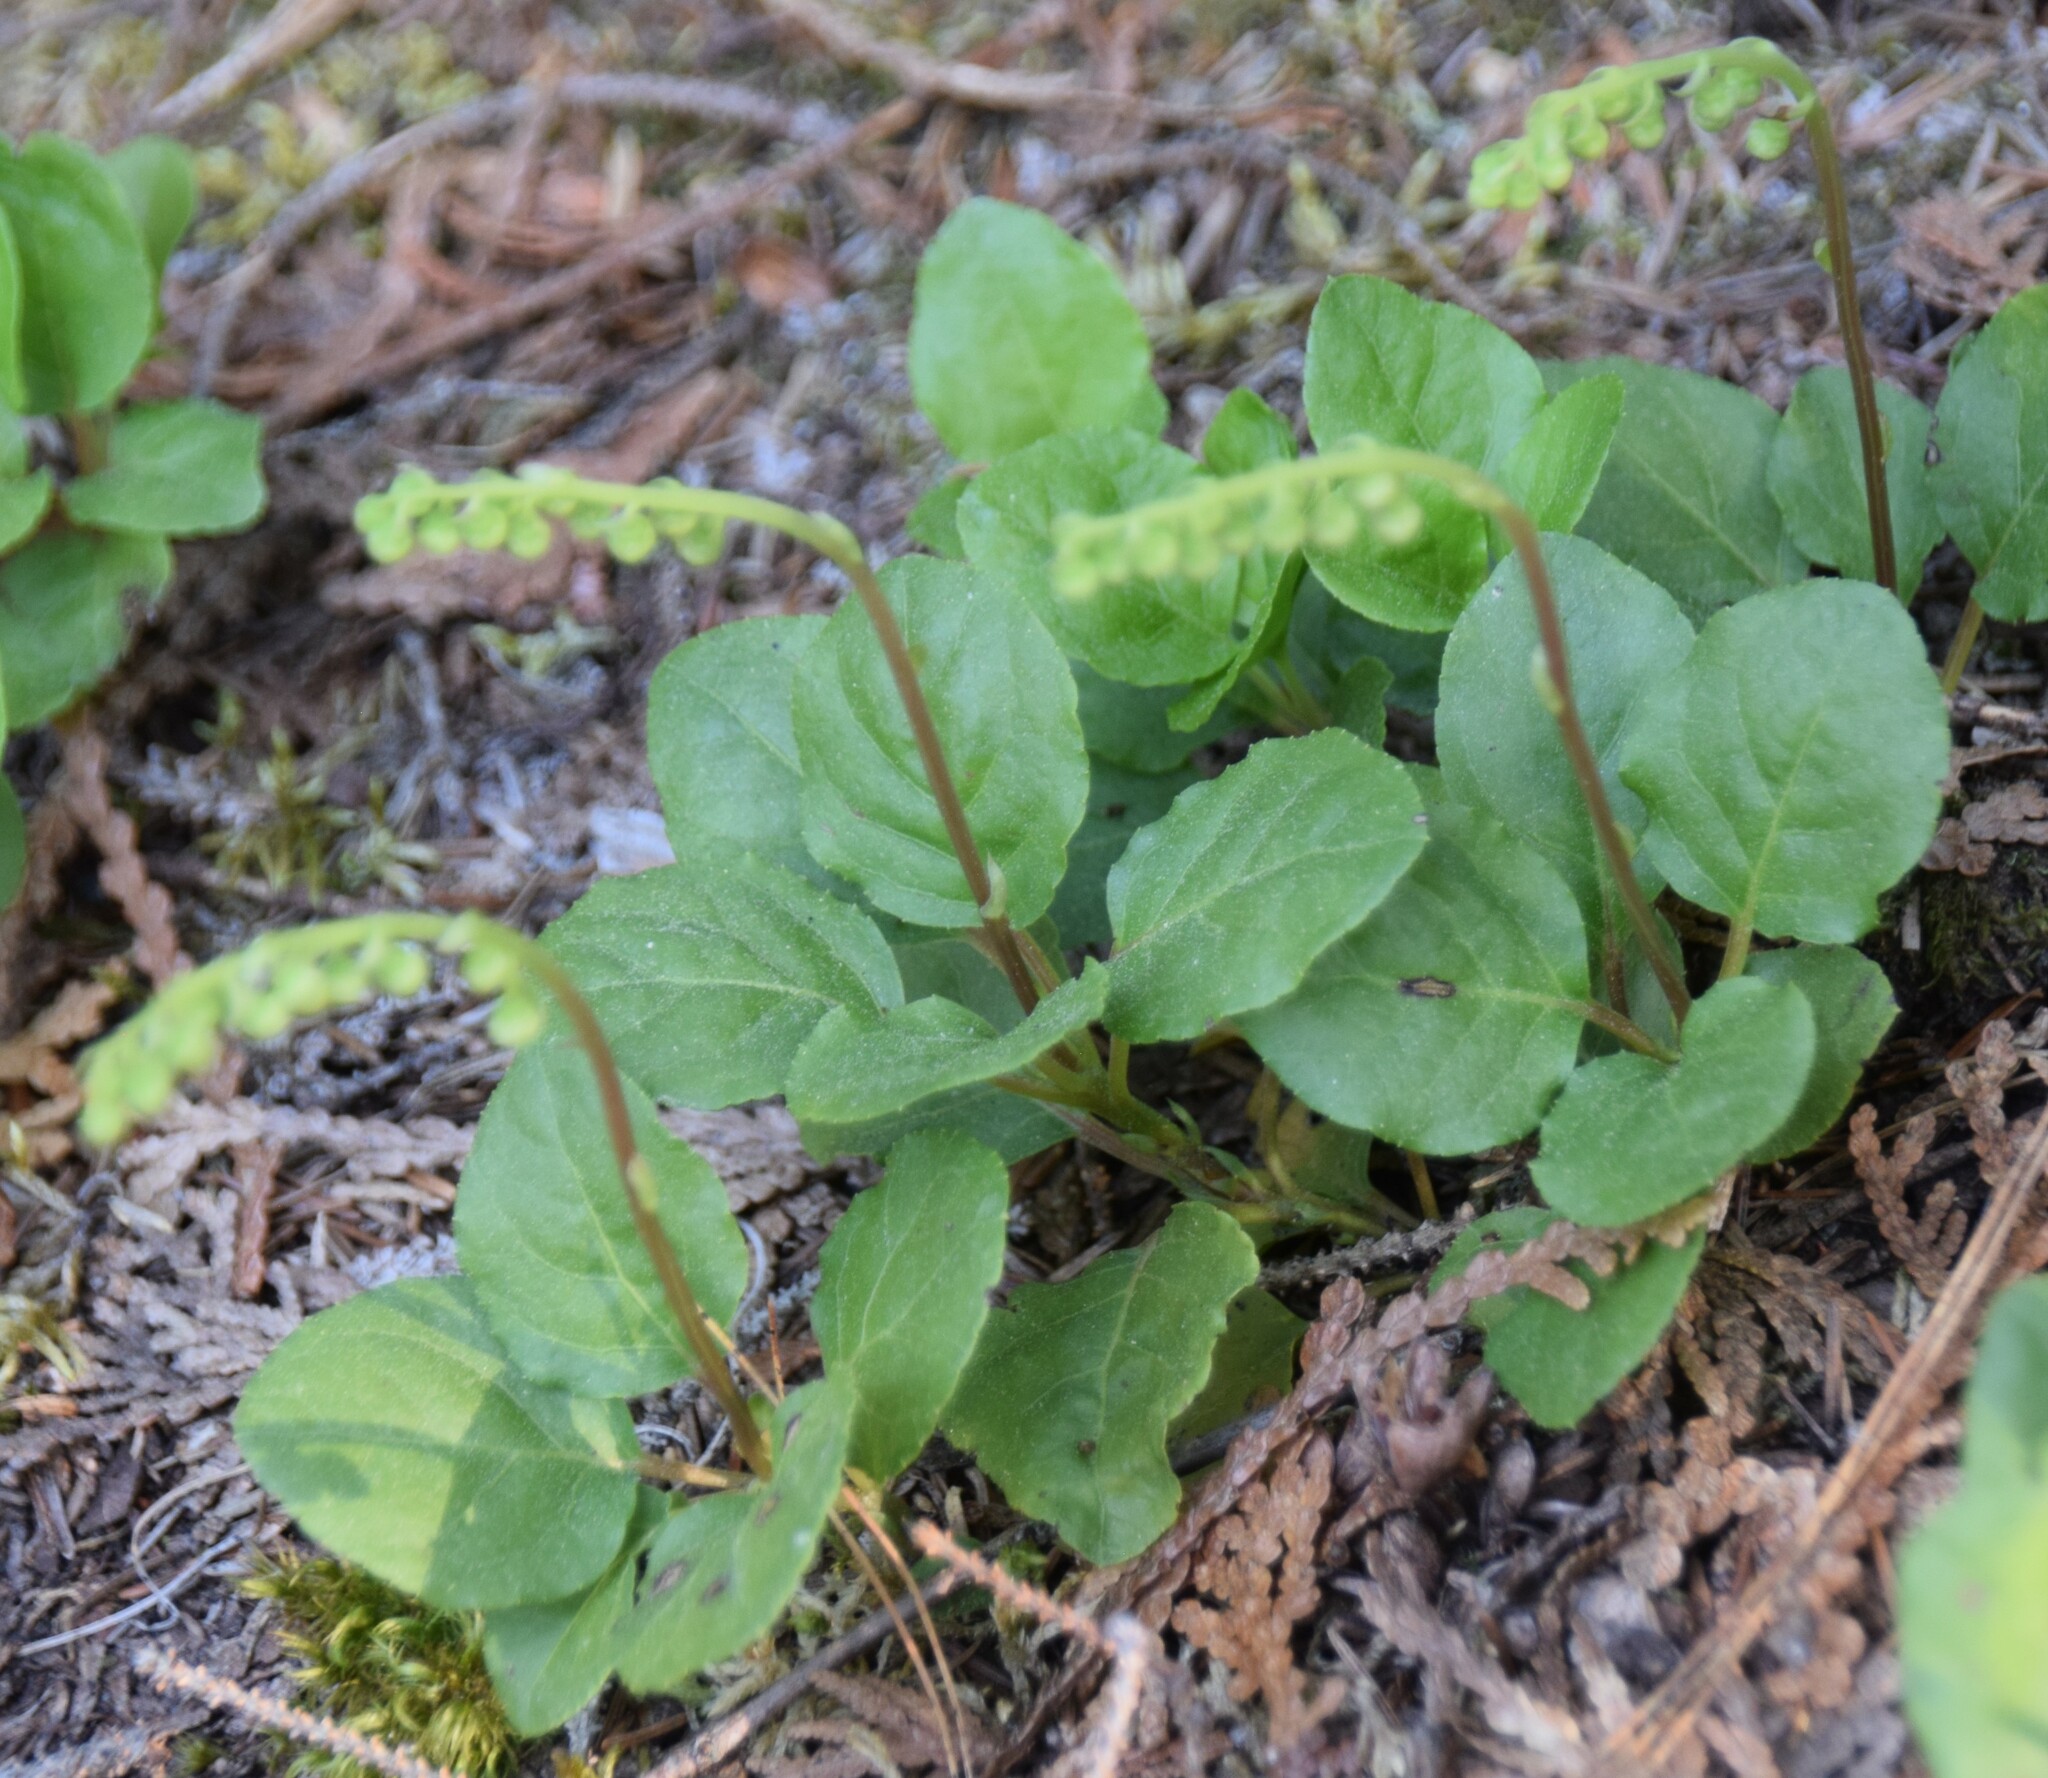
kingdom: Plantae
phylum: Tracheophyta
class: Magnoliopsida
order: Ericales
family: Ericaceae
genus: Orthilia
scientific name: Orthilia secunda
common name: One-sided orthilia
